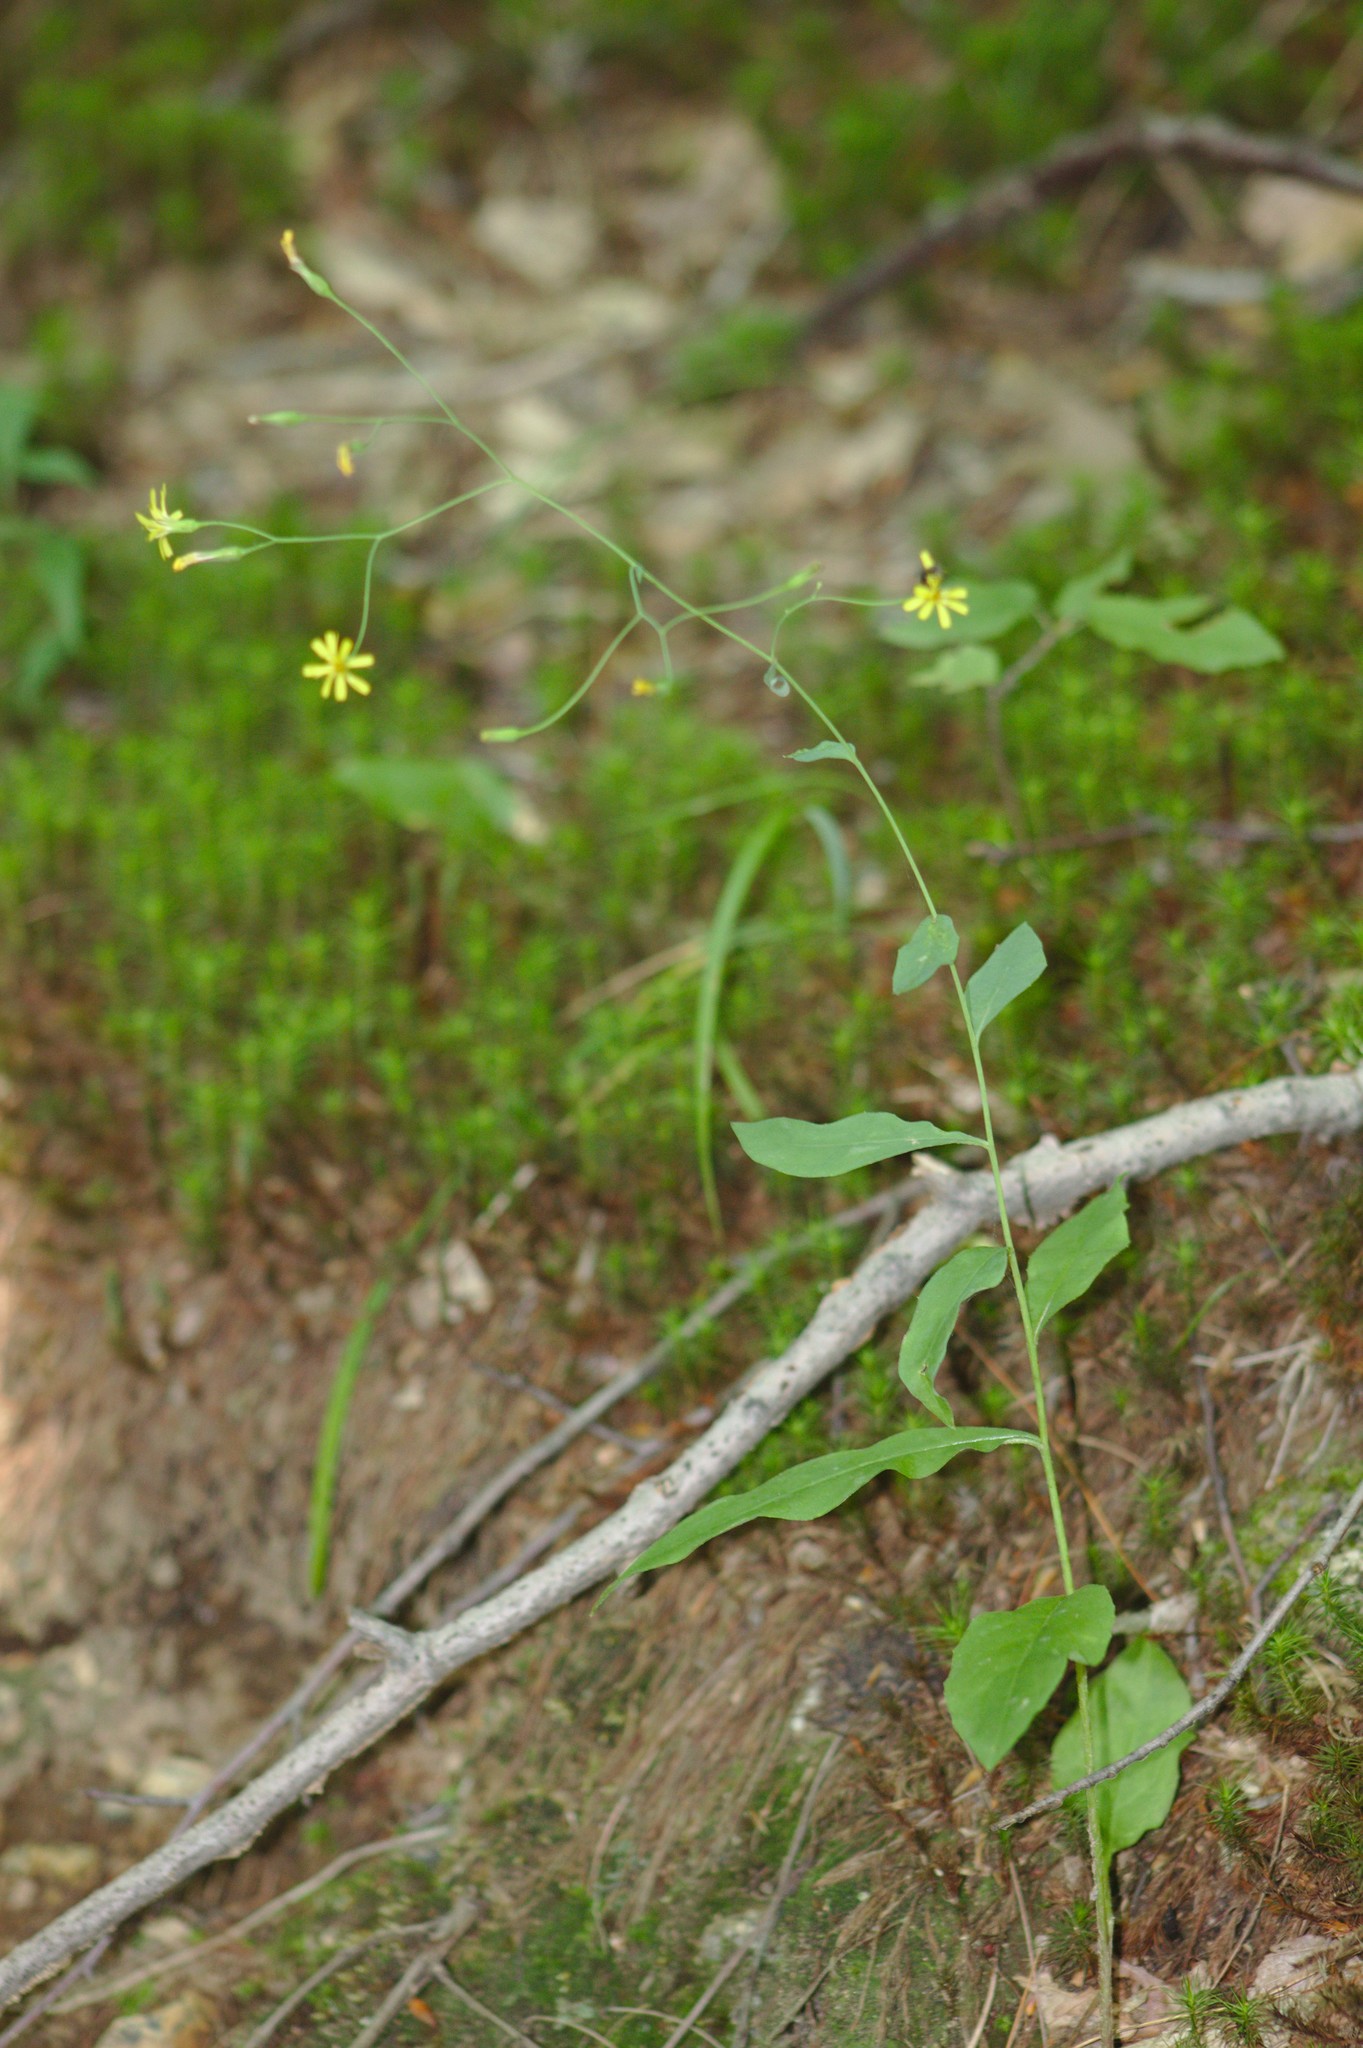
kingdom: Plantae
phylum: Tracheophyta
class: Magnoliopsida
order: Asterales
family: Asteraceae
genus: Hieracium
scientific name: Hieracium paniculatum
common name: Allegheny hawkweed
